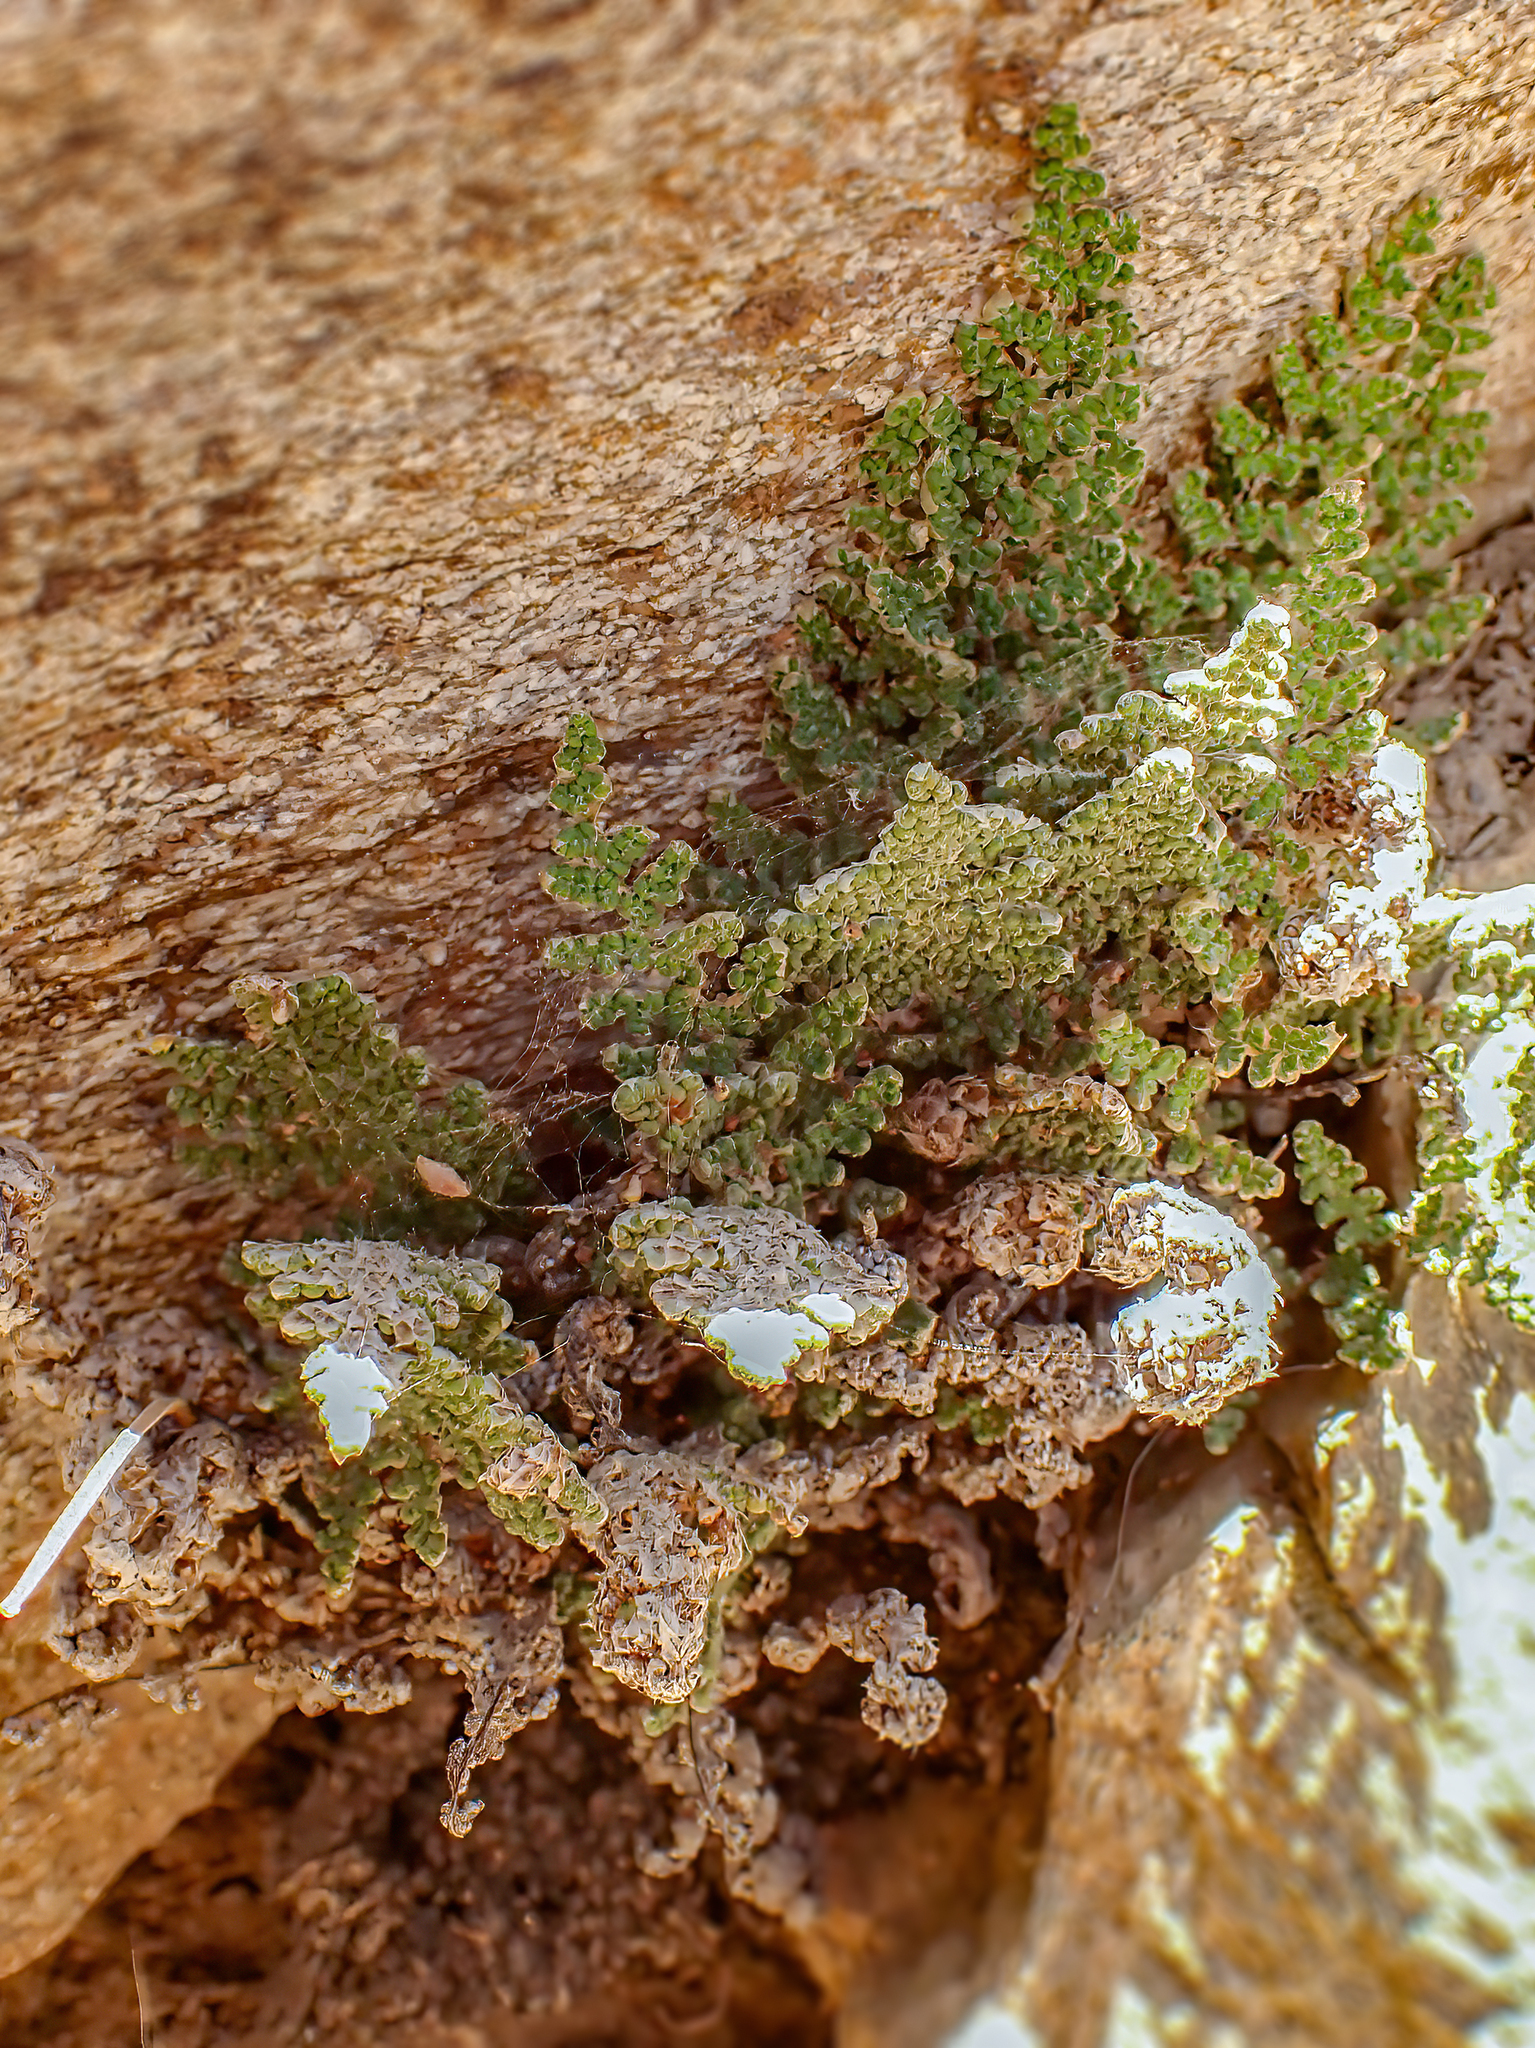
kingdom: Plantae
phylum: Tracheophyta
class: Polypodiopsida
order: Polypodiales
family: Pteridaceae
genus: Myriopteris
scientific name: Myriopteris covillei
